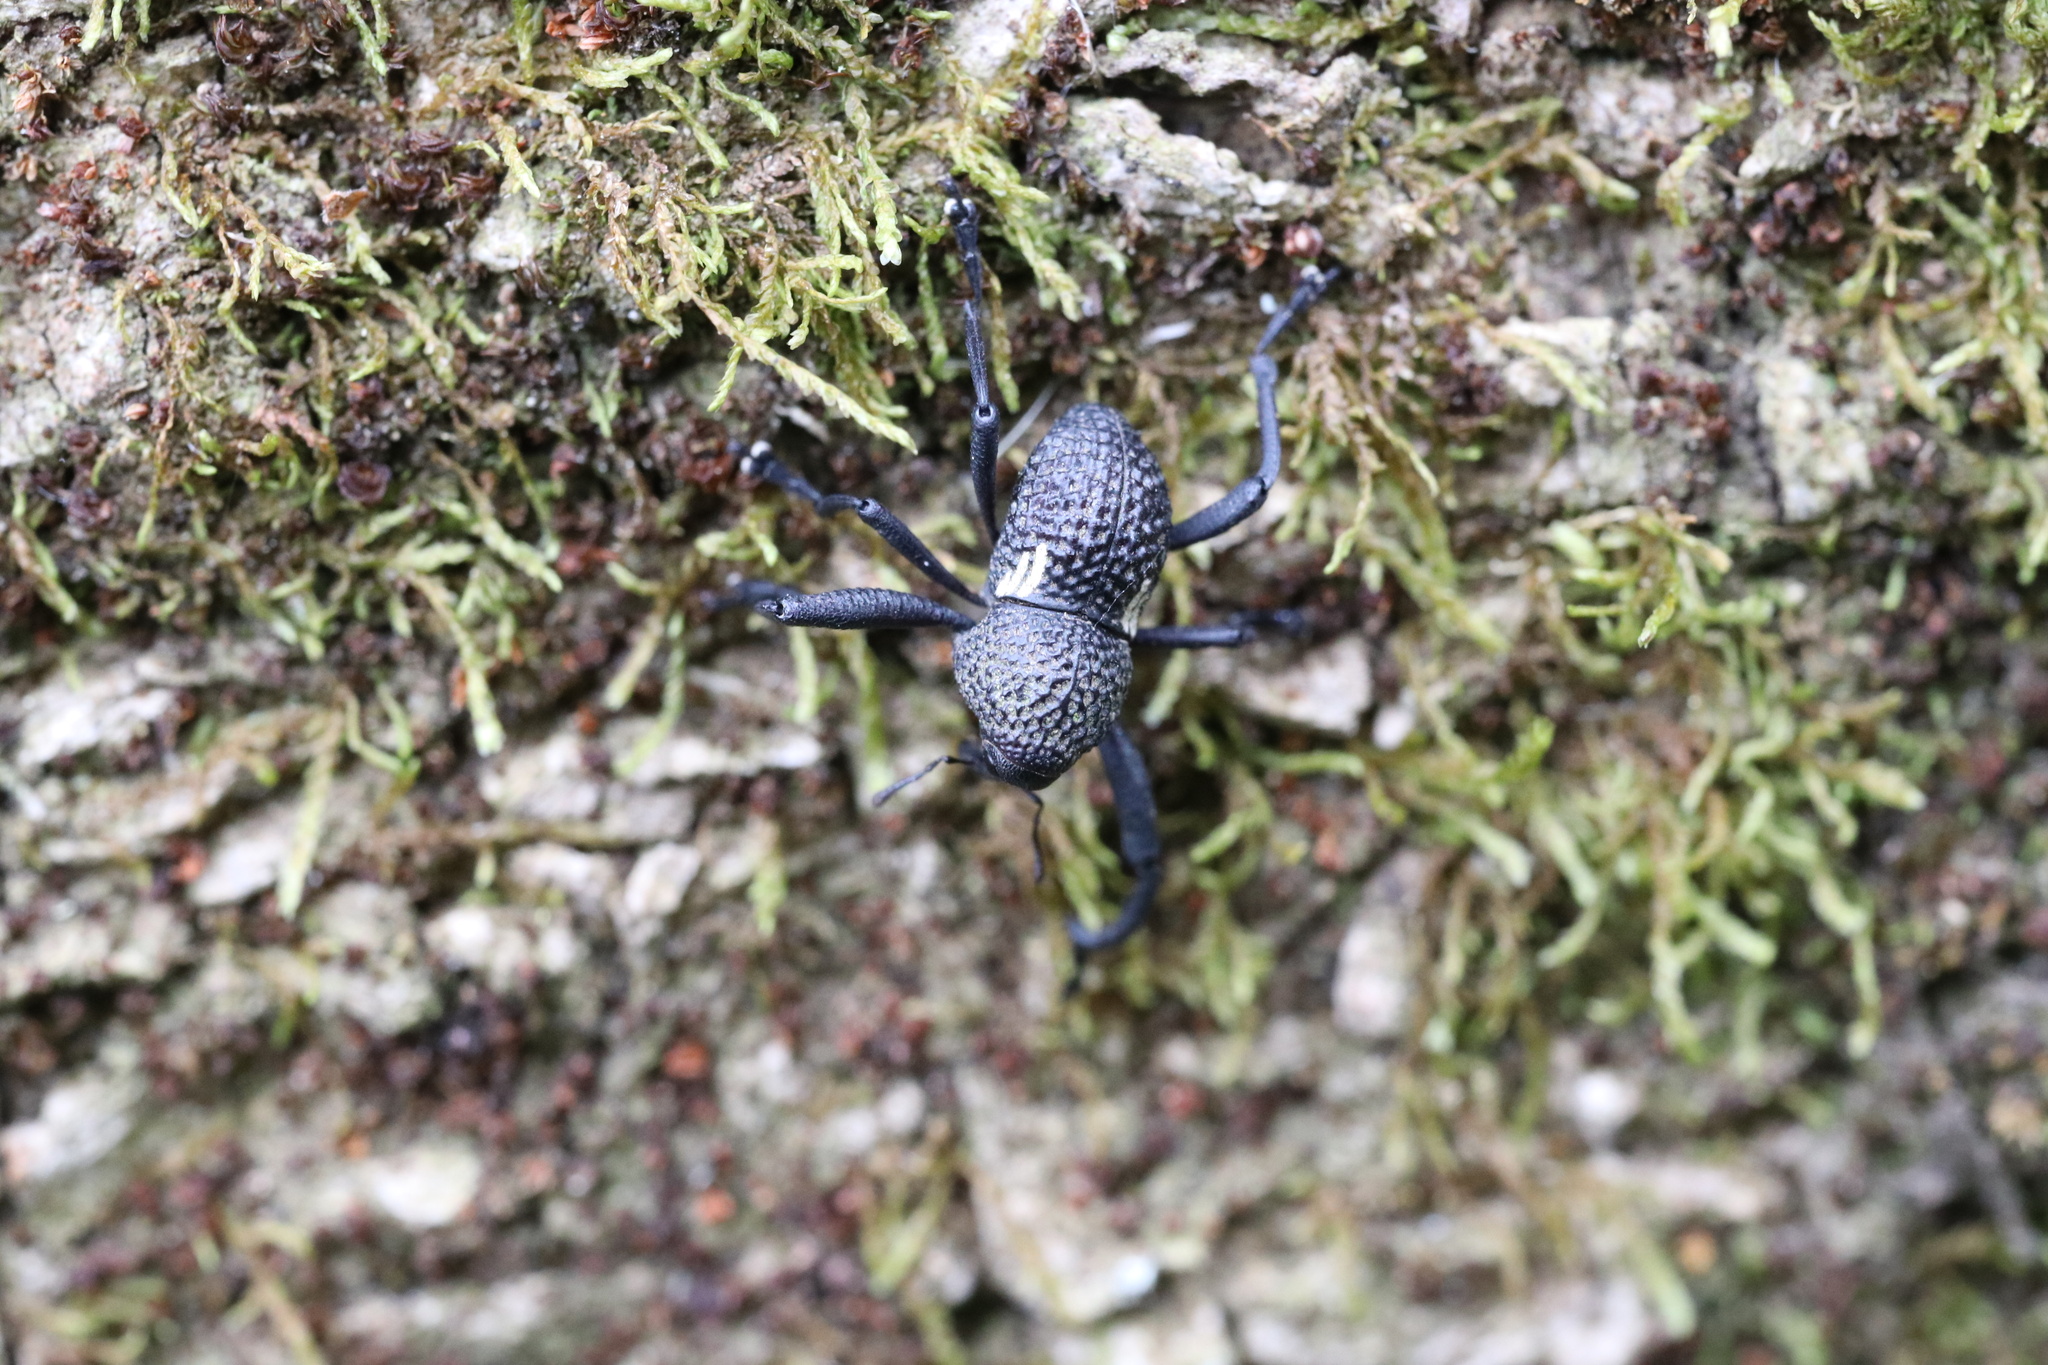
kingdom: Animalia
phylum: Arthropoda
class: Insecta
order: Coleoptera
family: Curculionidae
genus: Rhyephenes
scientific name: Rhyephenes humeralis
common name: Araè±ita chilena del pino
